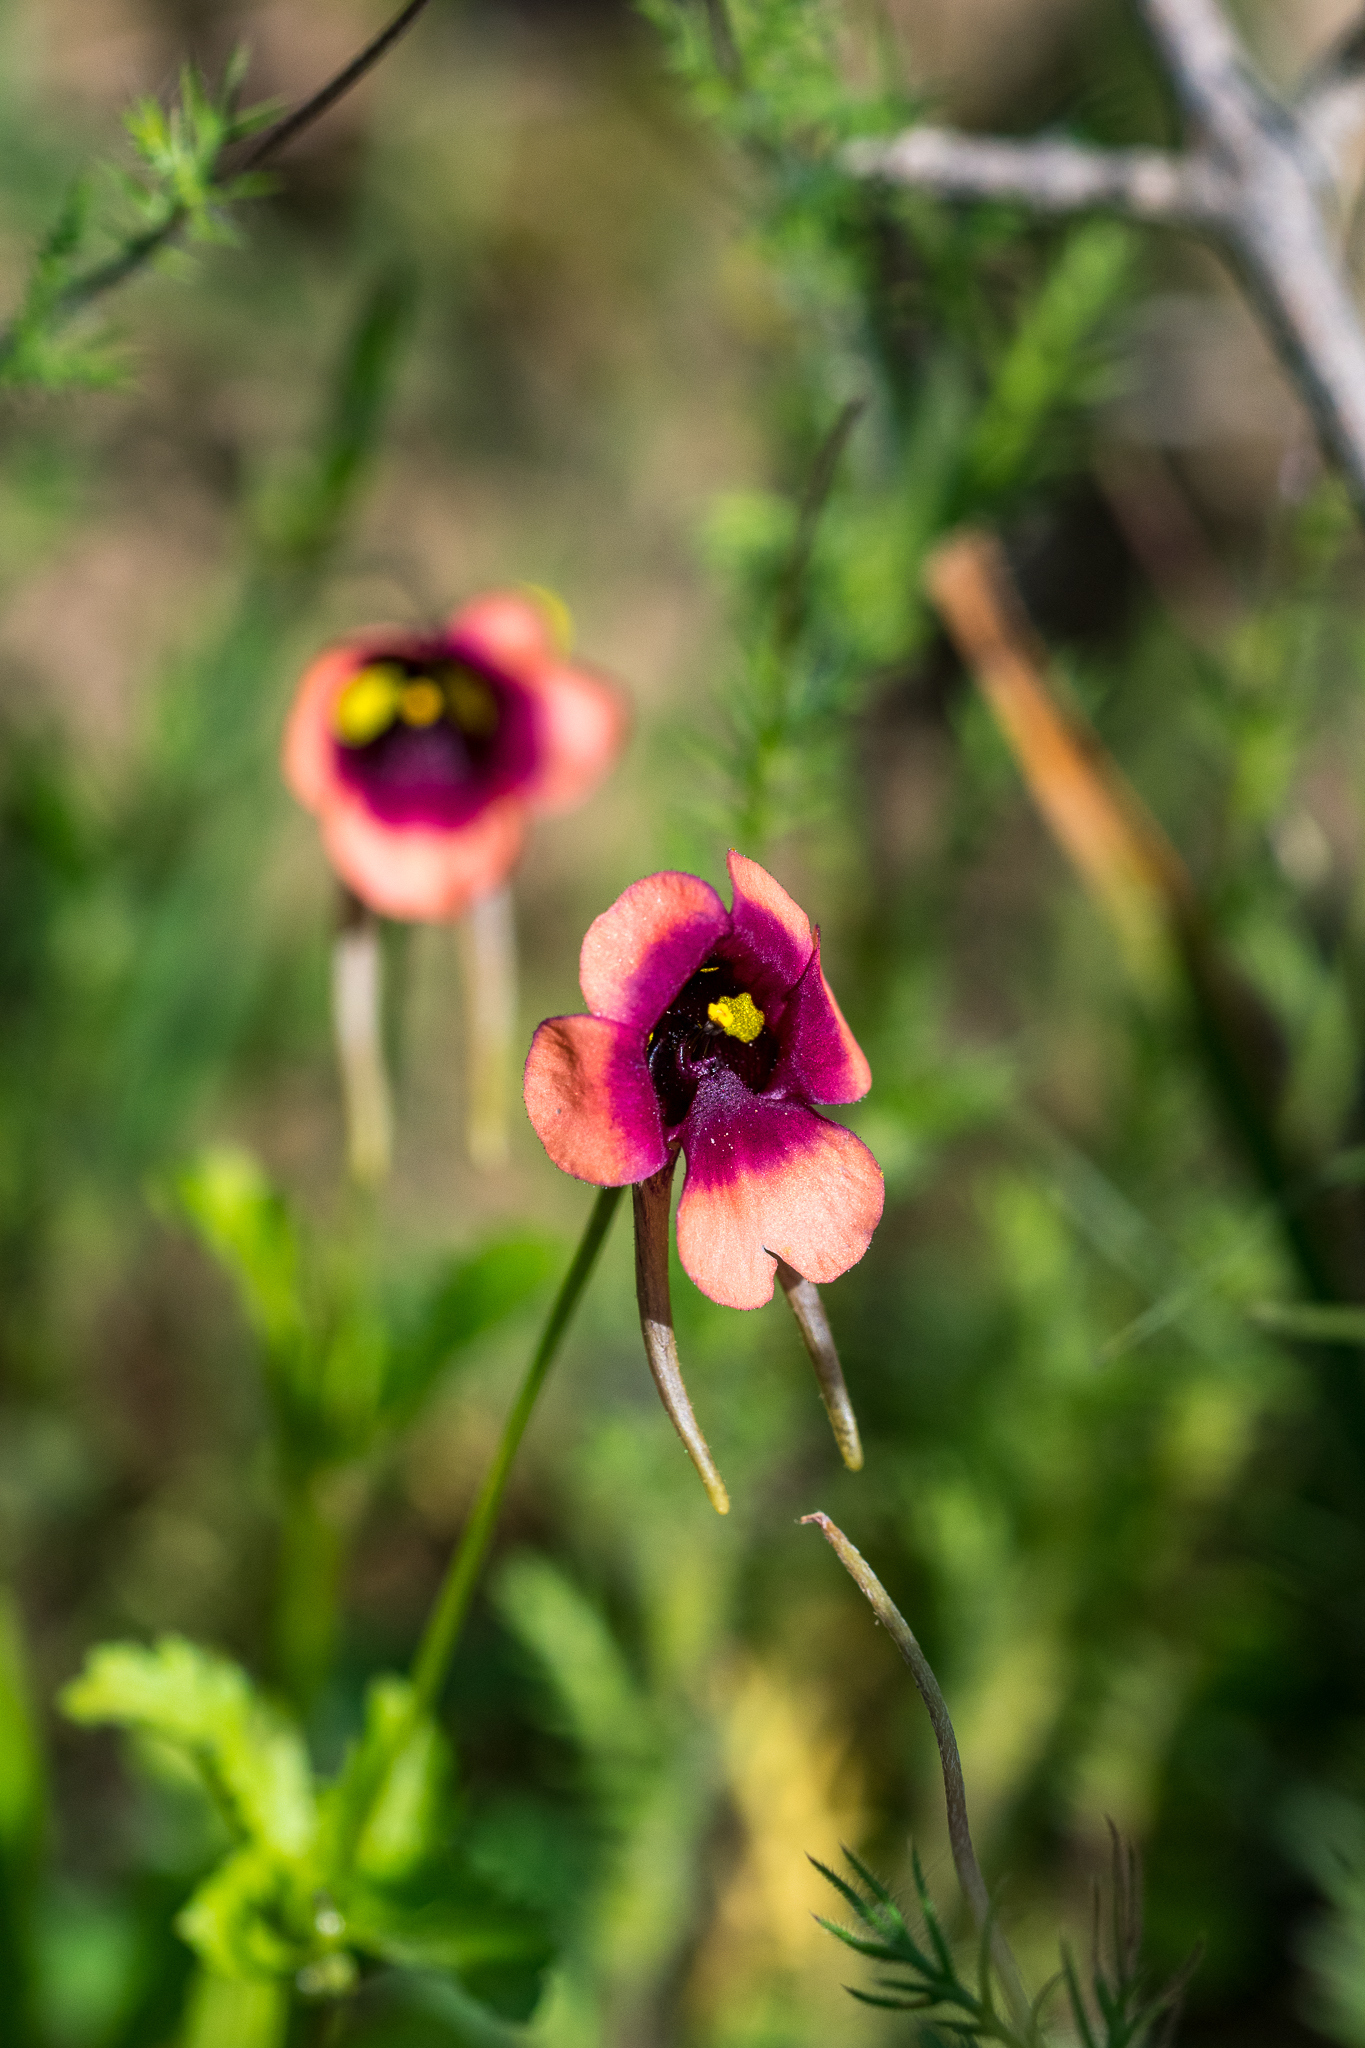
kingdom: Plantae
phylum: Tracheophyta
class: Magnoliopsida
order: Lamiales
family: Scrophulariaceae
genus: Diascia
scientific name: Diascia longicornis
